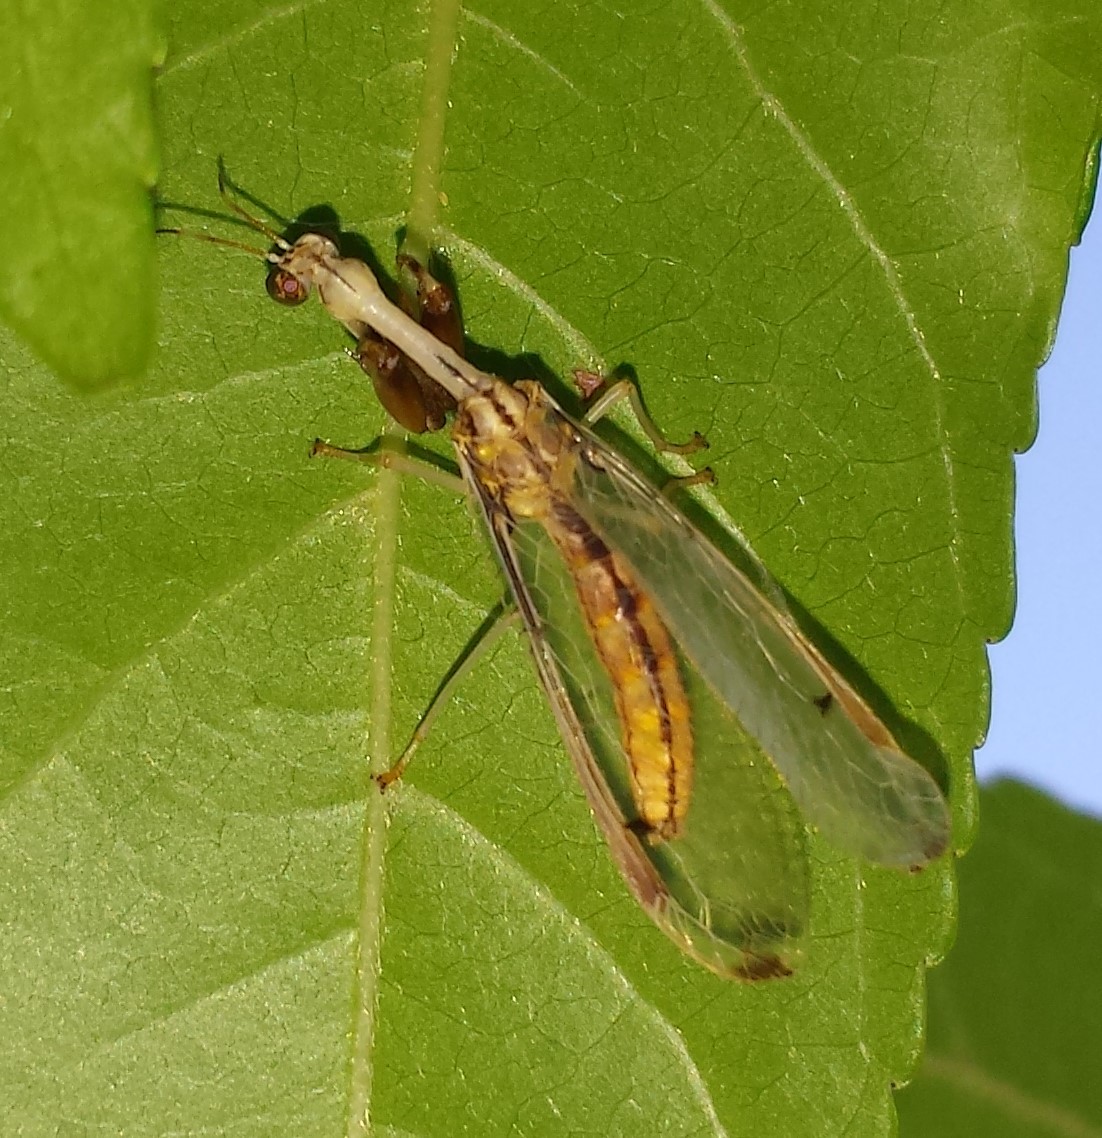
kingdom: Animalia
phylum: Arthropoda
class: Insecta
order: Neuroptera
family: Mantispidae
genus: Dicromantispa
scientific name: Dicromantispa interrupta
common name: Four-spotted mantidfly
